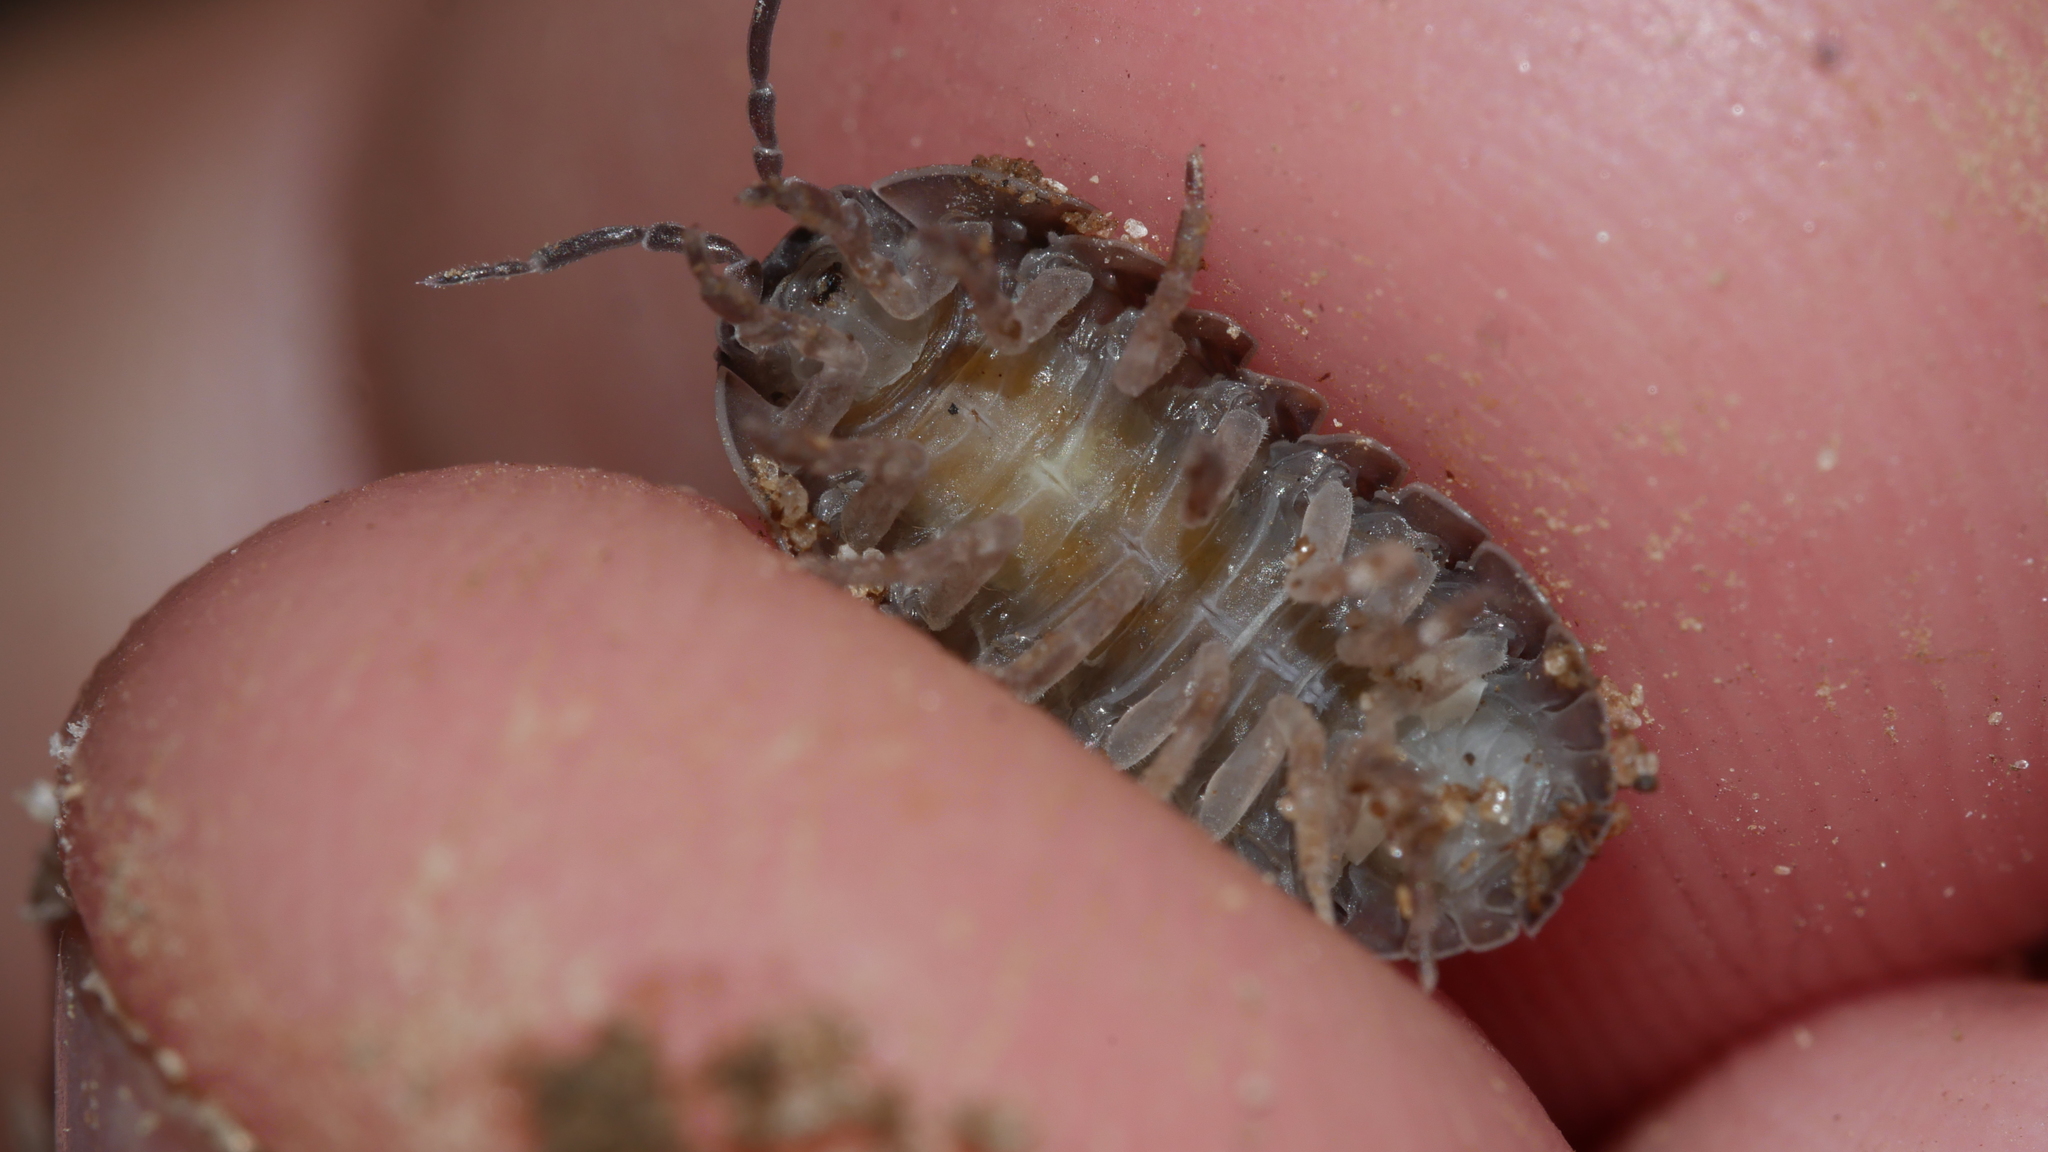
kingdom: Animalia
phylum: Arthropoda
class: Malacostraca
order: Isopoda
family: Armadillidiidae
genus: Armadillidium
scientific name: Armadillidium vulgare
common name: Common pill woodlouse
